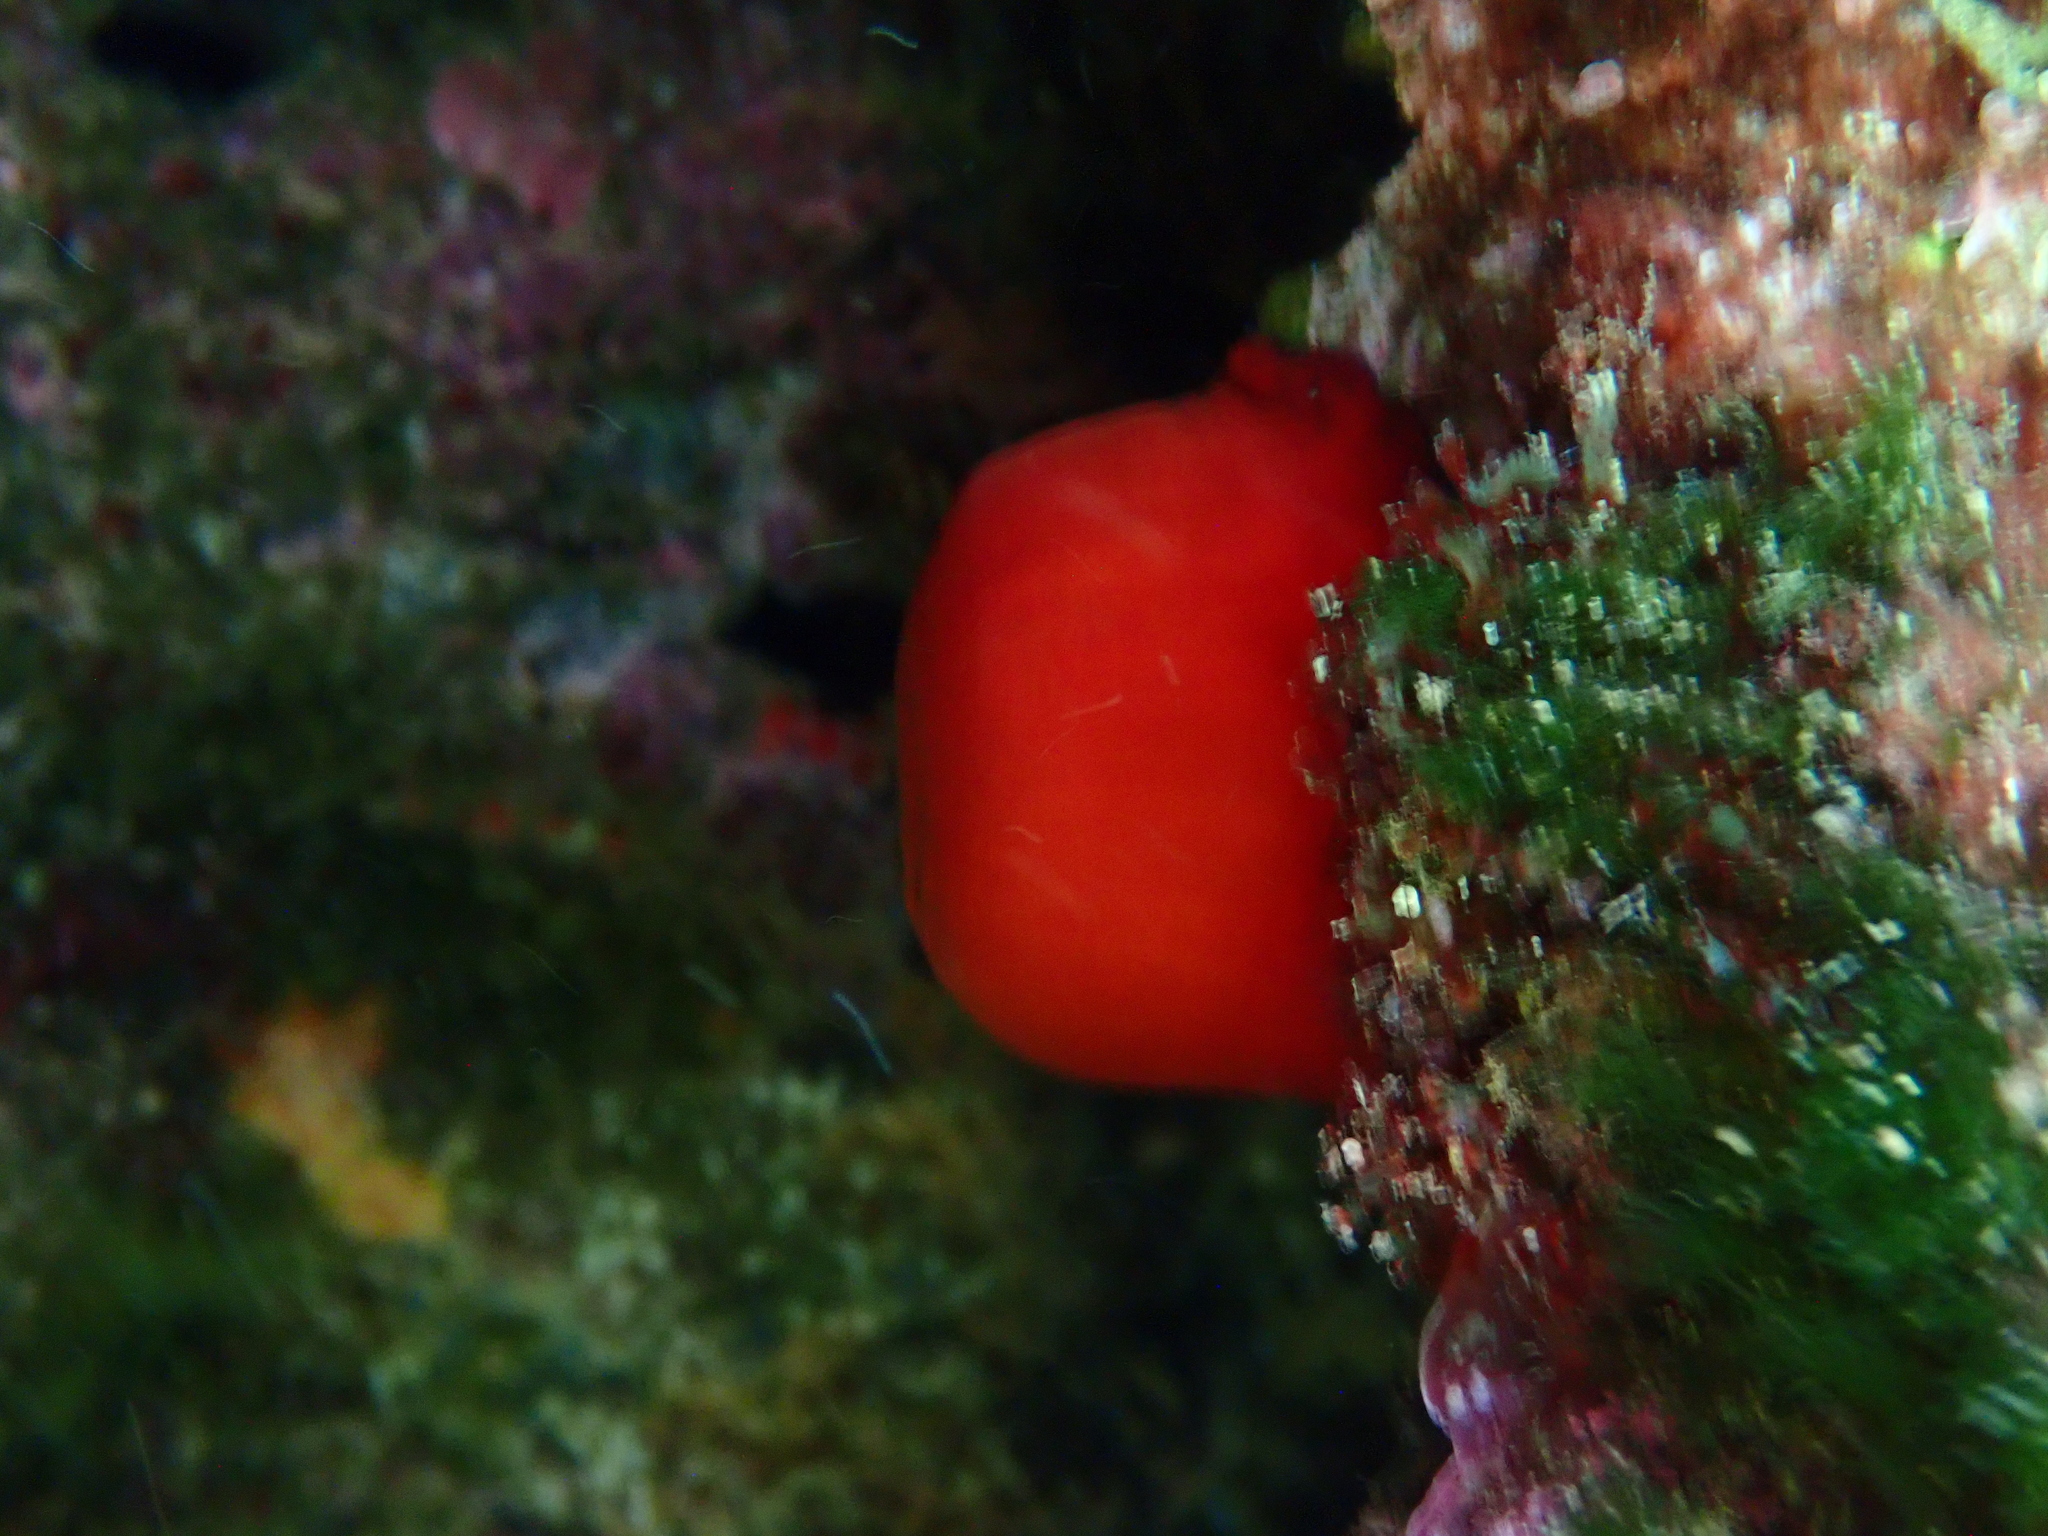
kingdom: Animalia
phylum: Cnidaria
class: Anthozoa
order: Actiniaria
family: Actiniidae
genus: Actinia
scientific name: Actinia mediterranea
